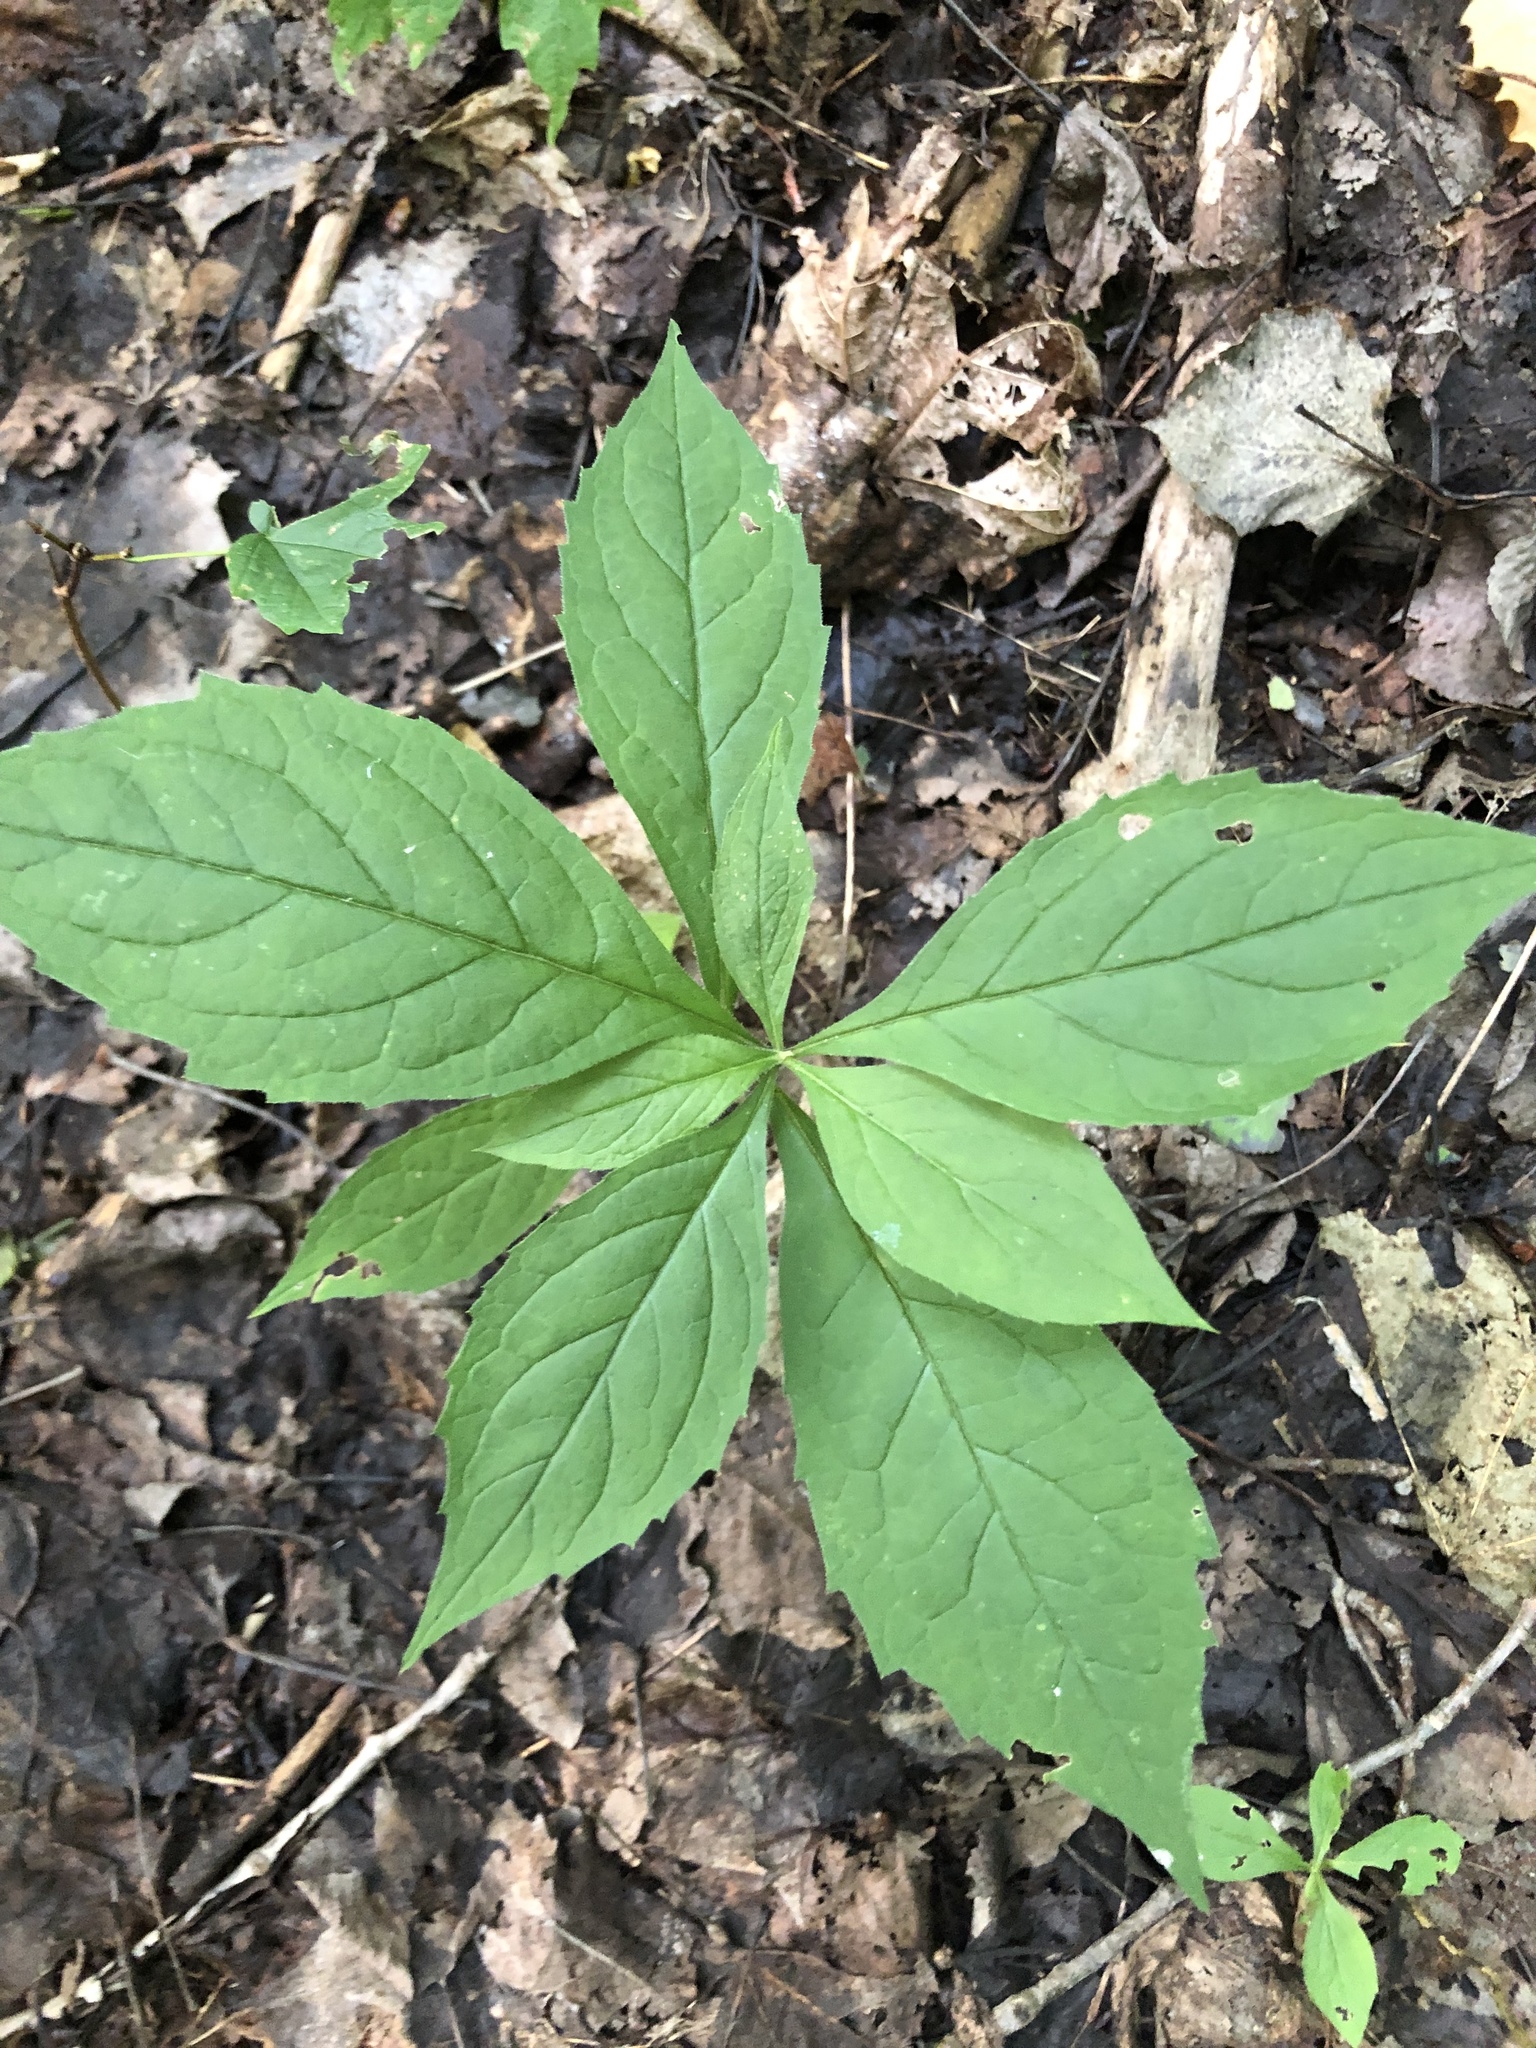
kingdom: Plantae
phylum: Tracheophyta
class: Magnoliopsida
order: Asterales
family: Asteraceae
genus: Oclemena
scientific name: Oclemena acuminata
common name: Mountain aster
